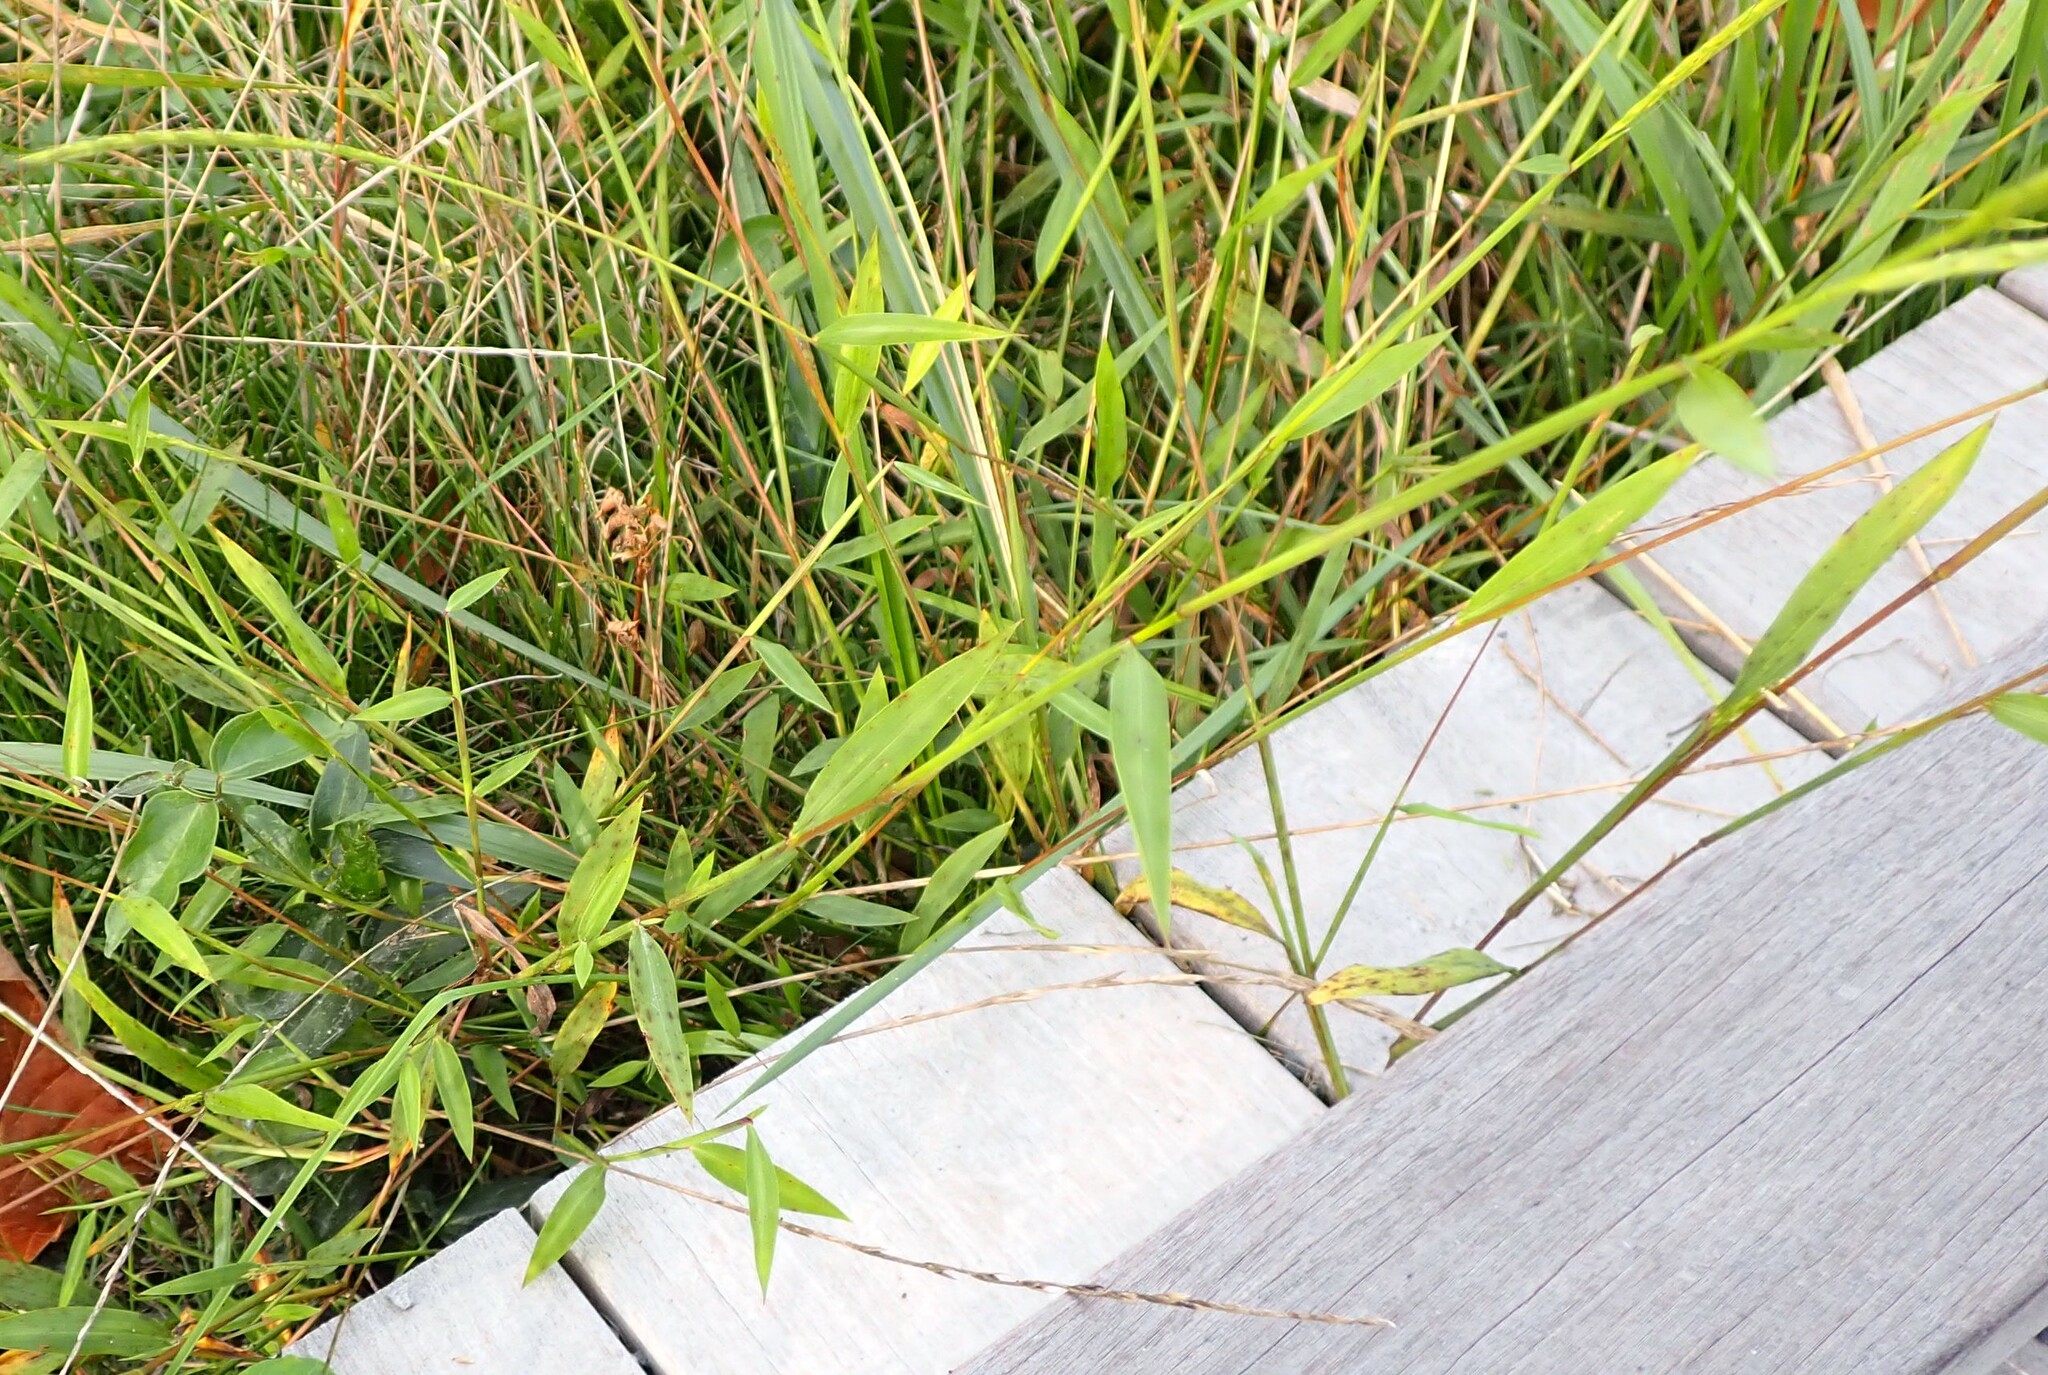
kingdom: Plantae
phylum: Tracheophyta
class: Liliopsida
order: Poales
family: Poaceae
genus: Microstegium
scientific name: Microstegium vimineum
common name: Japanese stiltgrass
